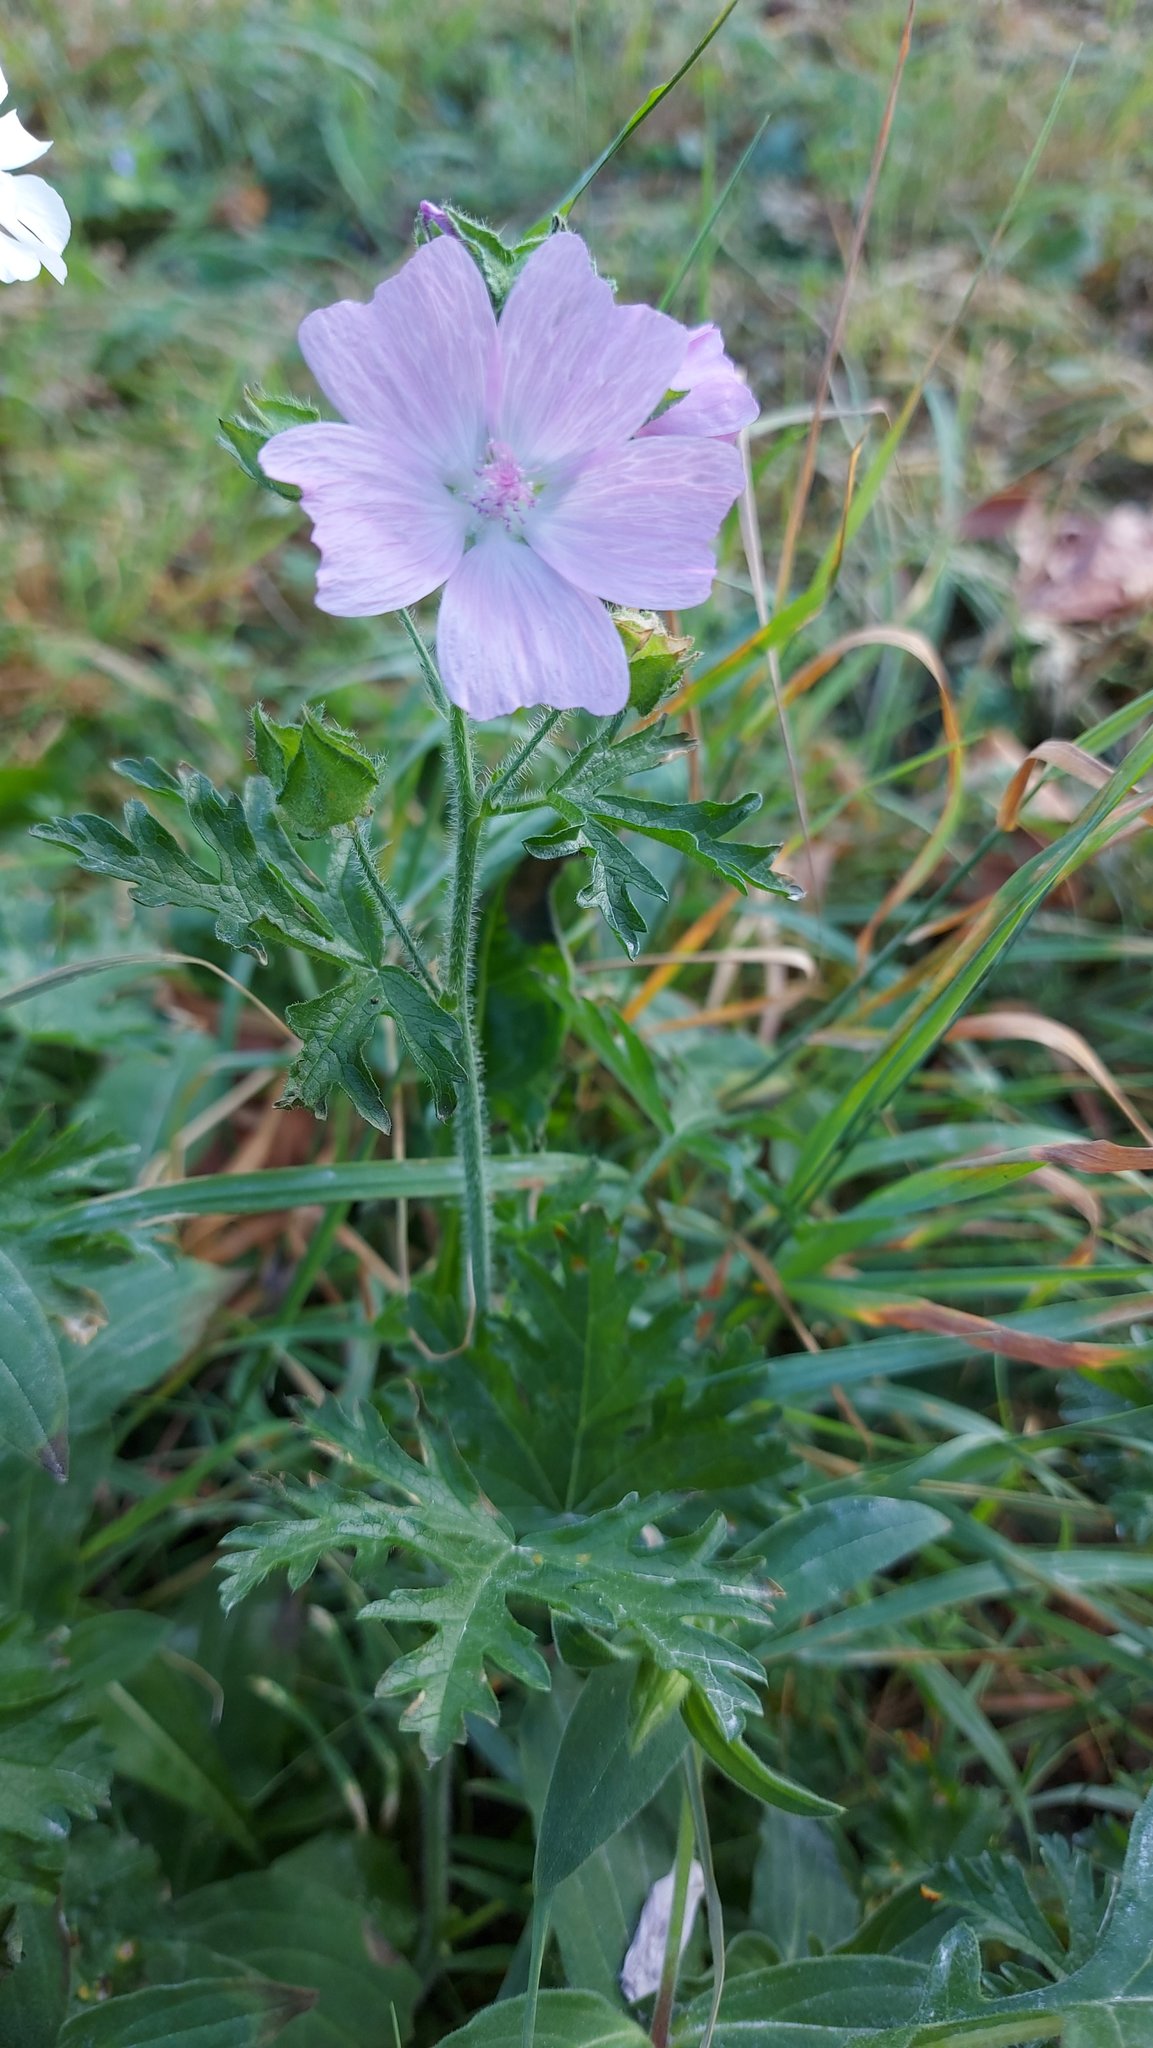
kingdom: Plantae
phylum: Tracheophyta
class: Magnoliopsida
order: Malvales
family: Malvaceae
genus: Malva
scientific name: Malva alcea
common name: Greater musk-mallow
